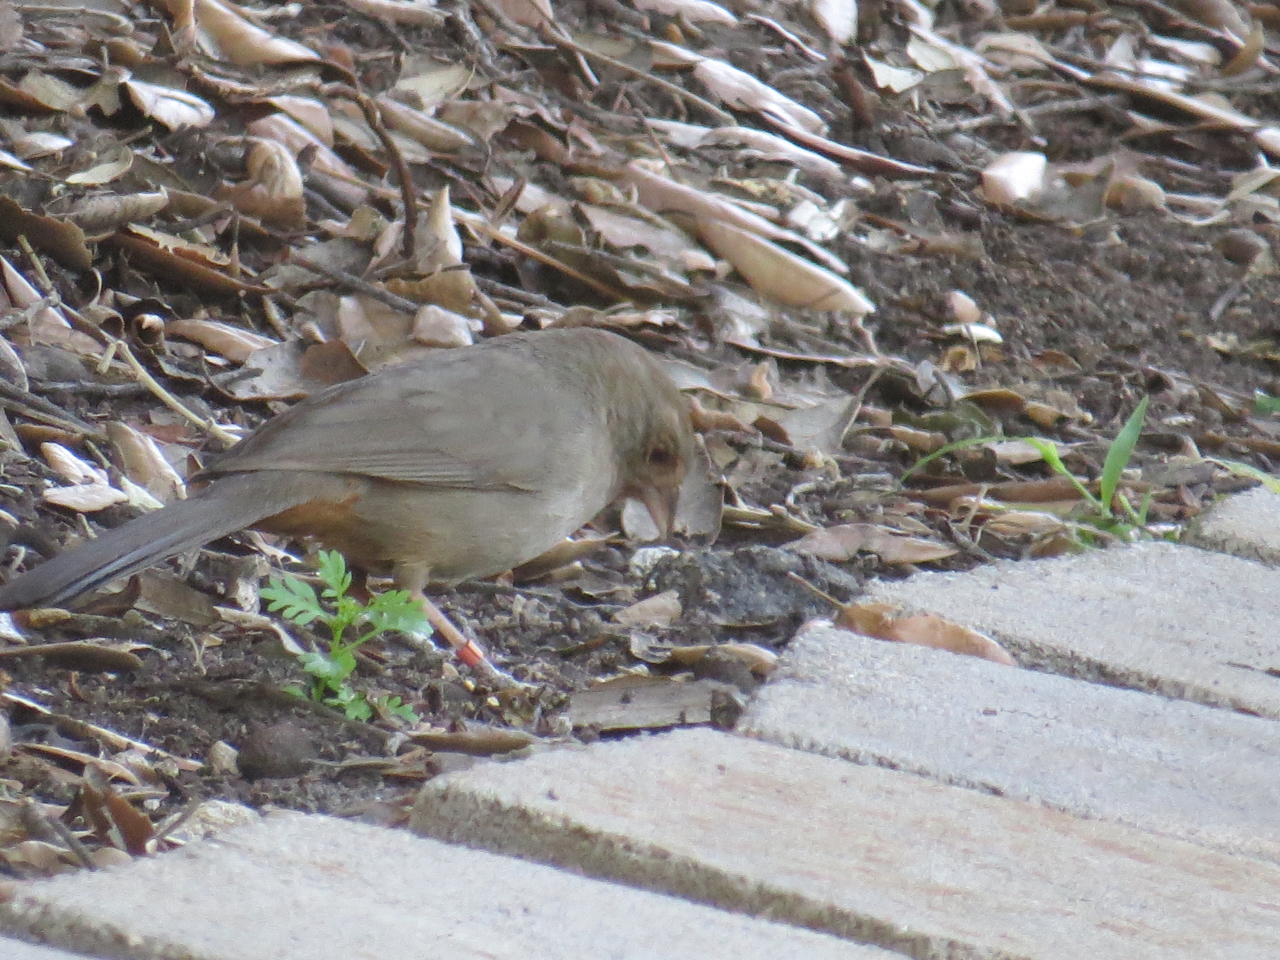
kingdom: Animalia
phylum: Chordata
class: Aves
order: Passeriformes
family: Passerellidae
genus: Melozone
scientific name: Melozone crissalis
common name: California towhee
